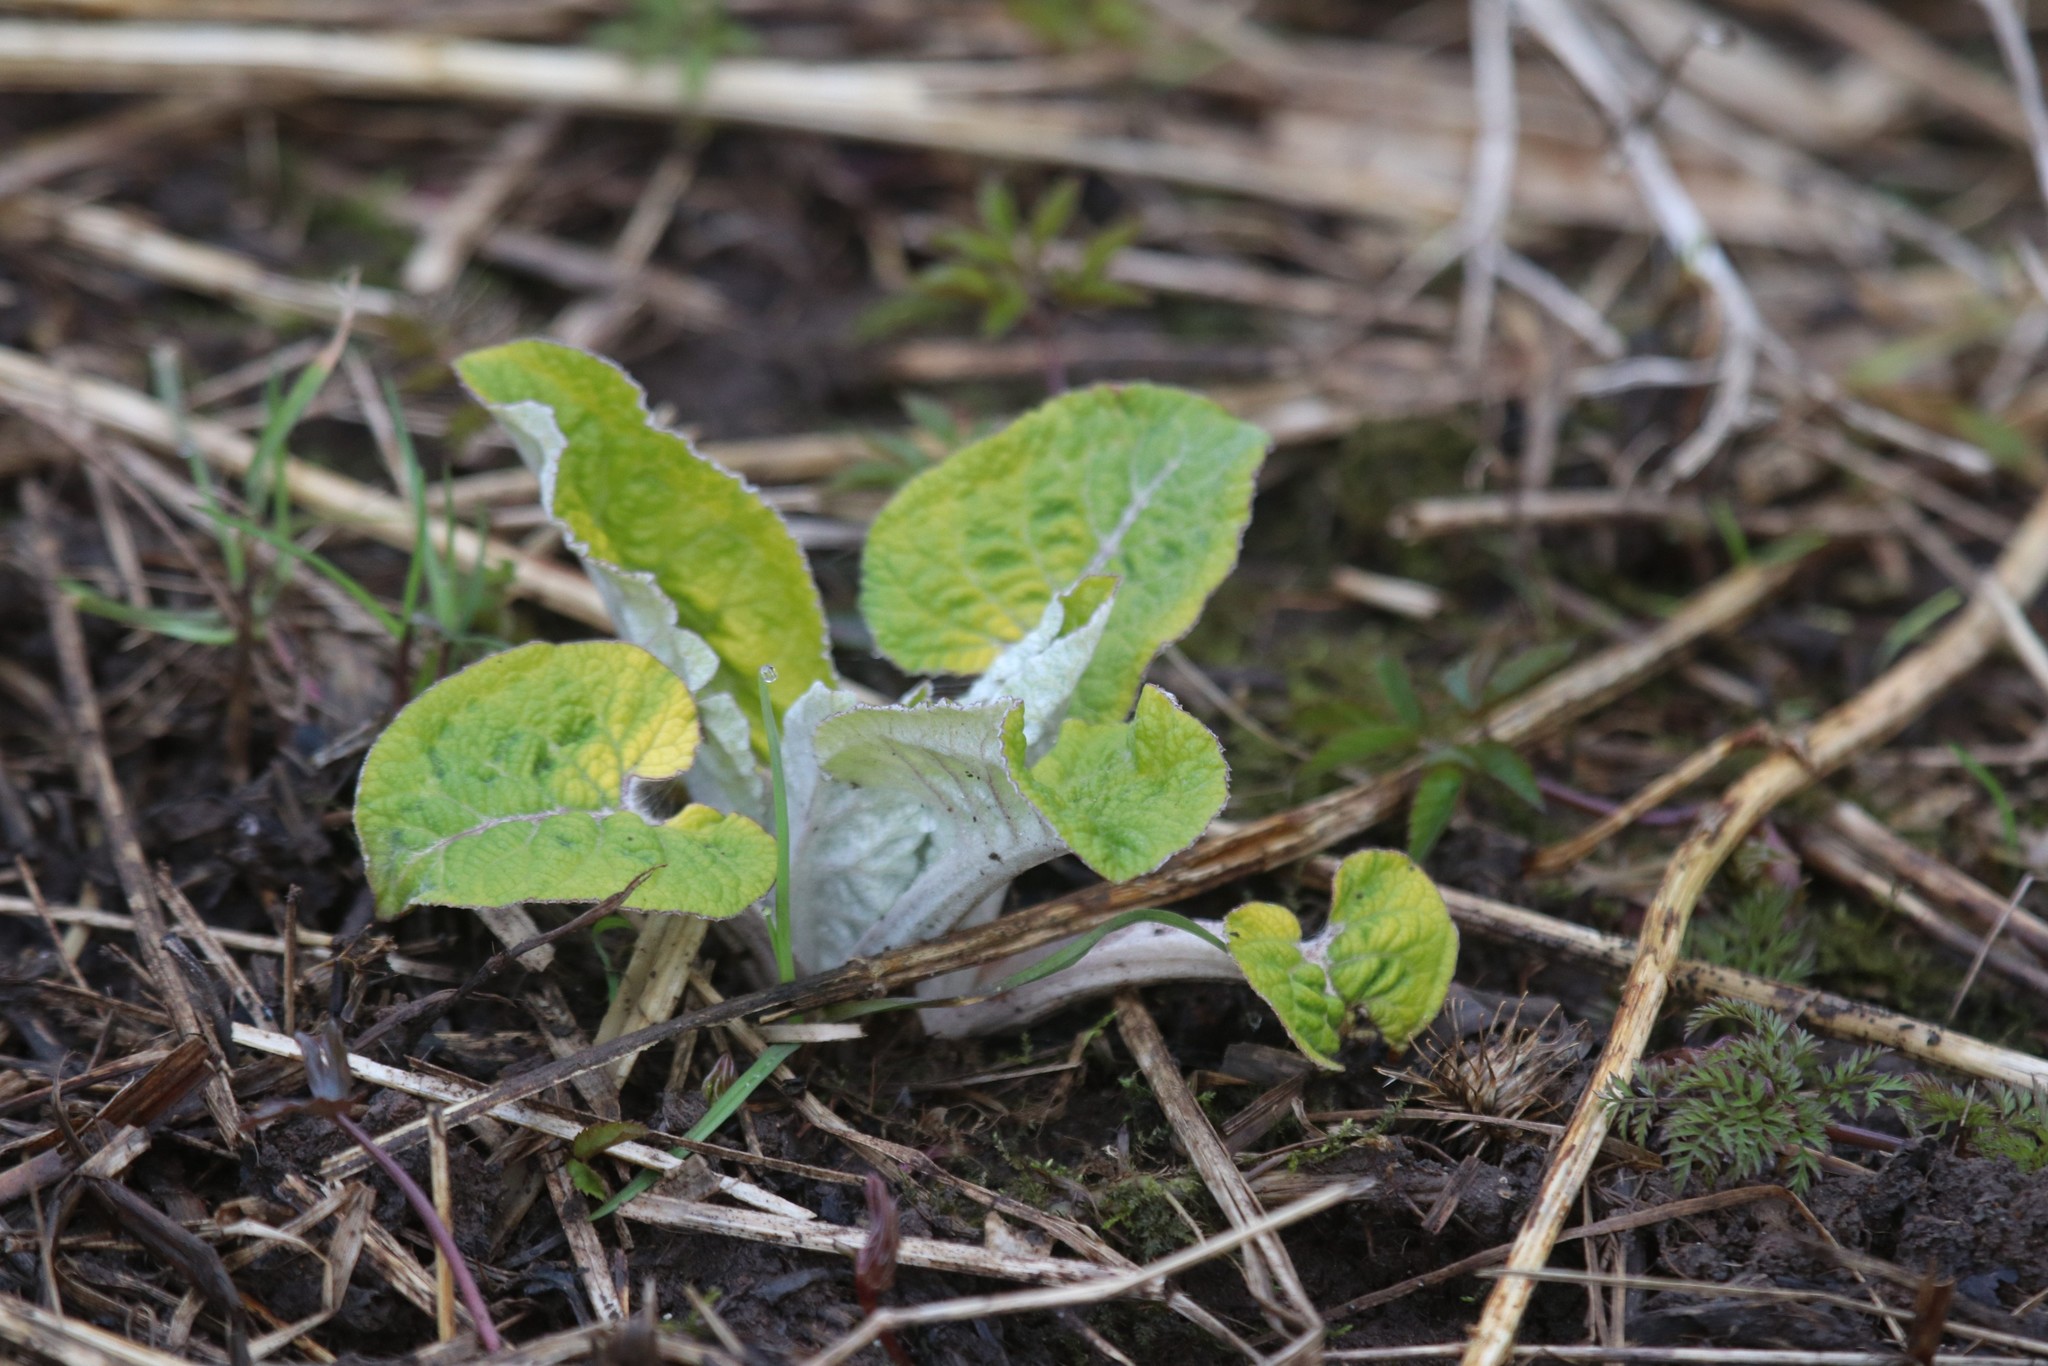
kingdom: Plantae
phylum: Tracheophyta
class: Magnoliopsida
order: Asterales
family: Asteraceae
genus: Arctium
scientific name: Arctium tomentosum
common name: Woolly burdock
